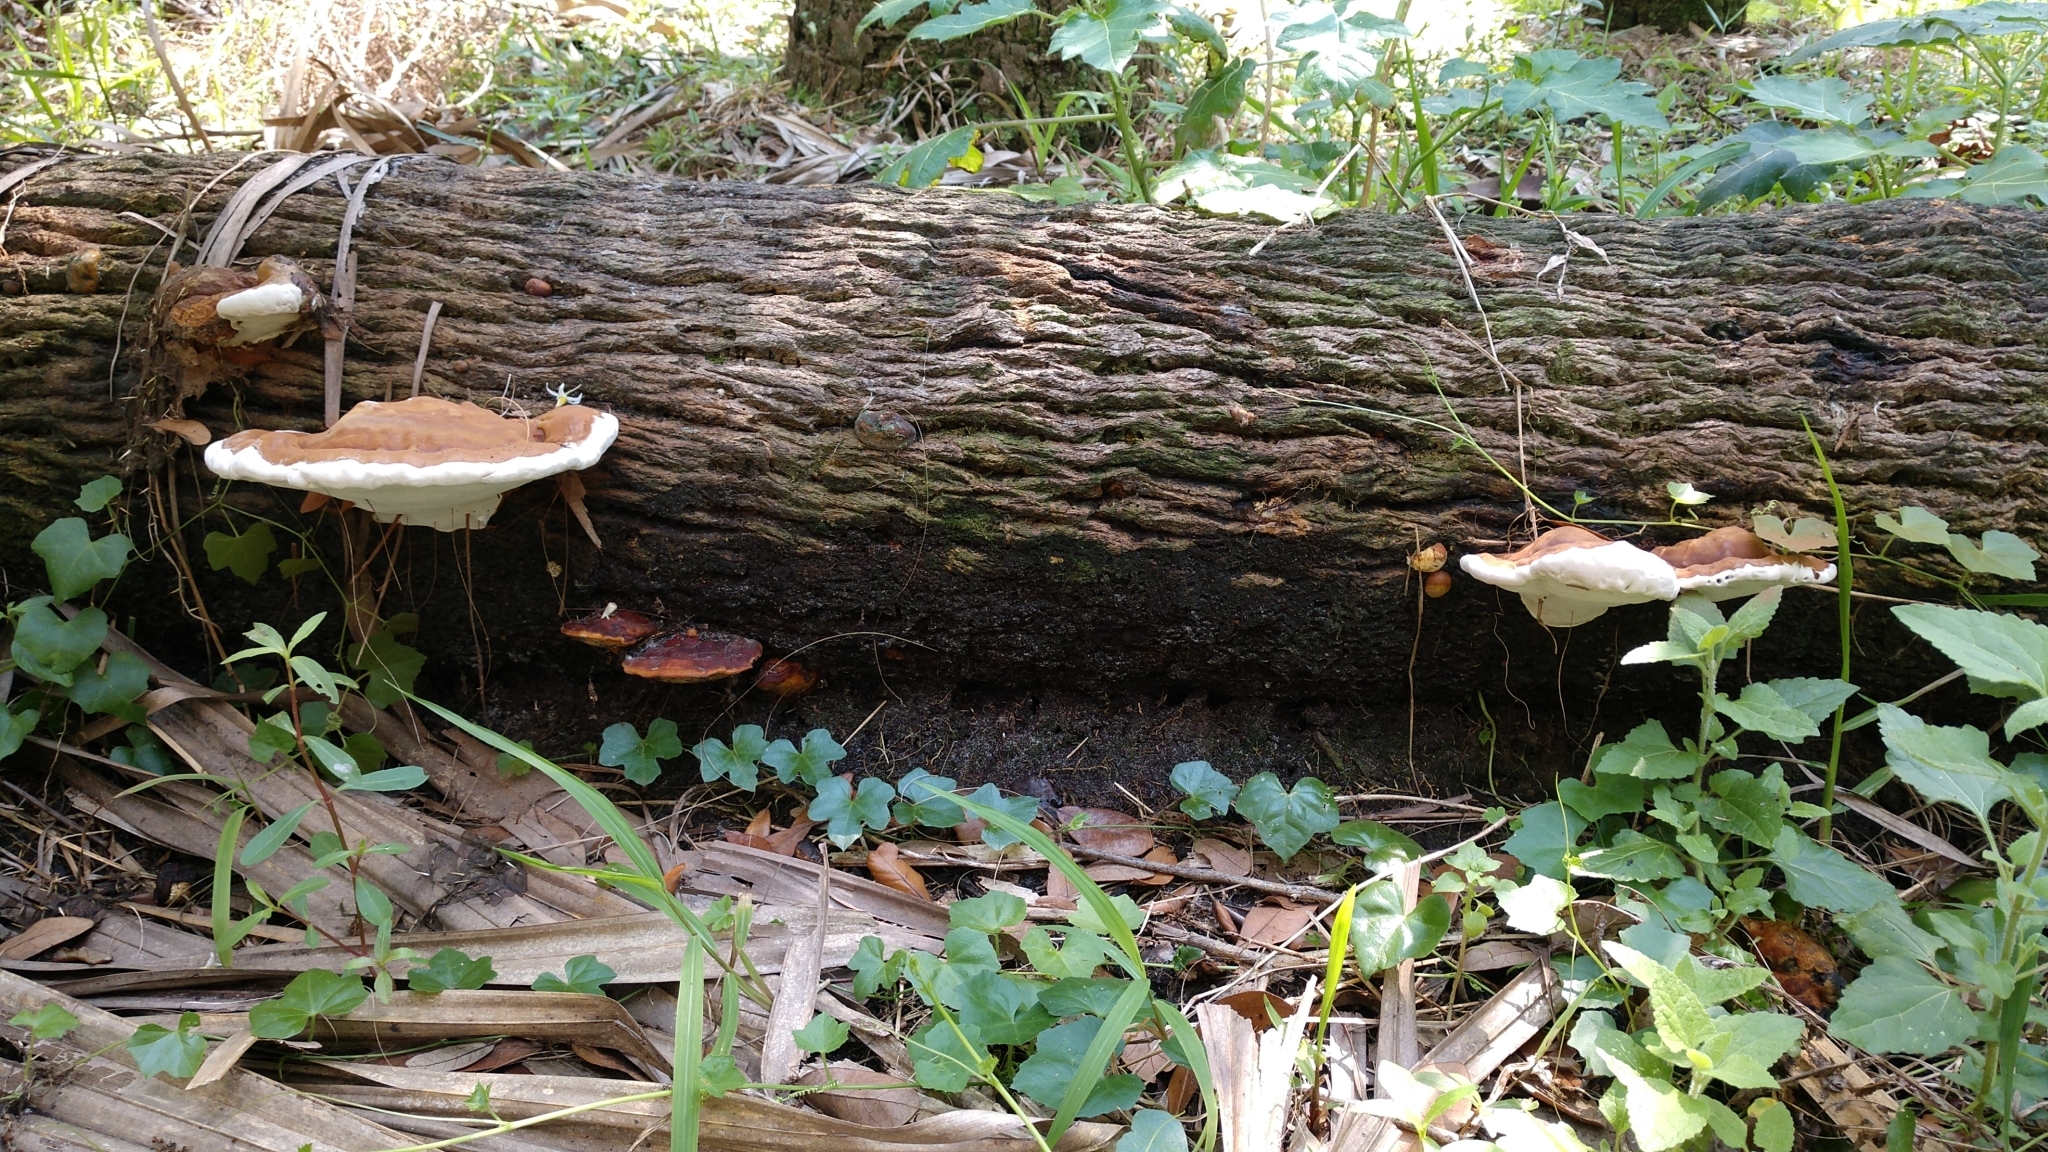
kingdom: Fungi
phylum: Basidiomycota
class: Agaricomycetes
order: Polyporales
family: Polyporaceae
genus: Ganoderma
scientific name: Ganoderma zonatum
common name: Ganoderma butt rot
